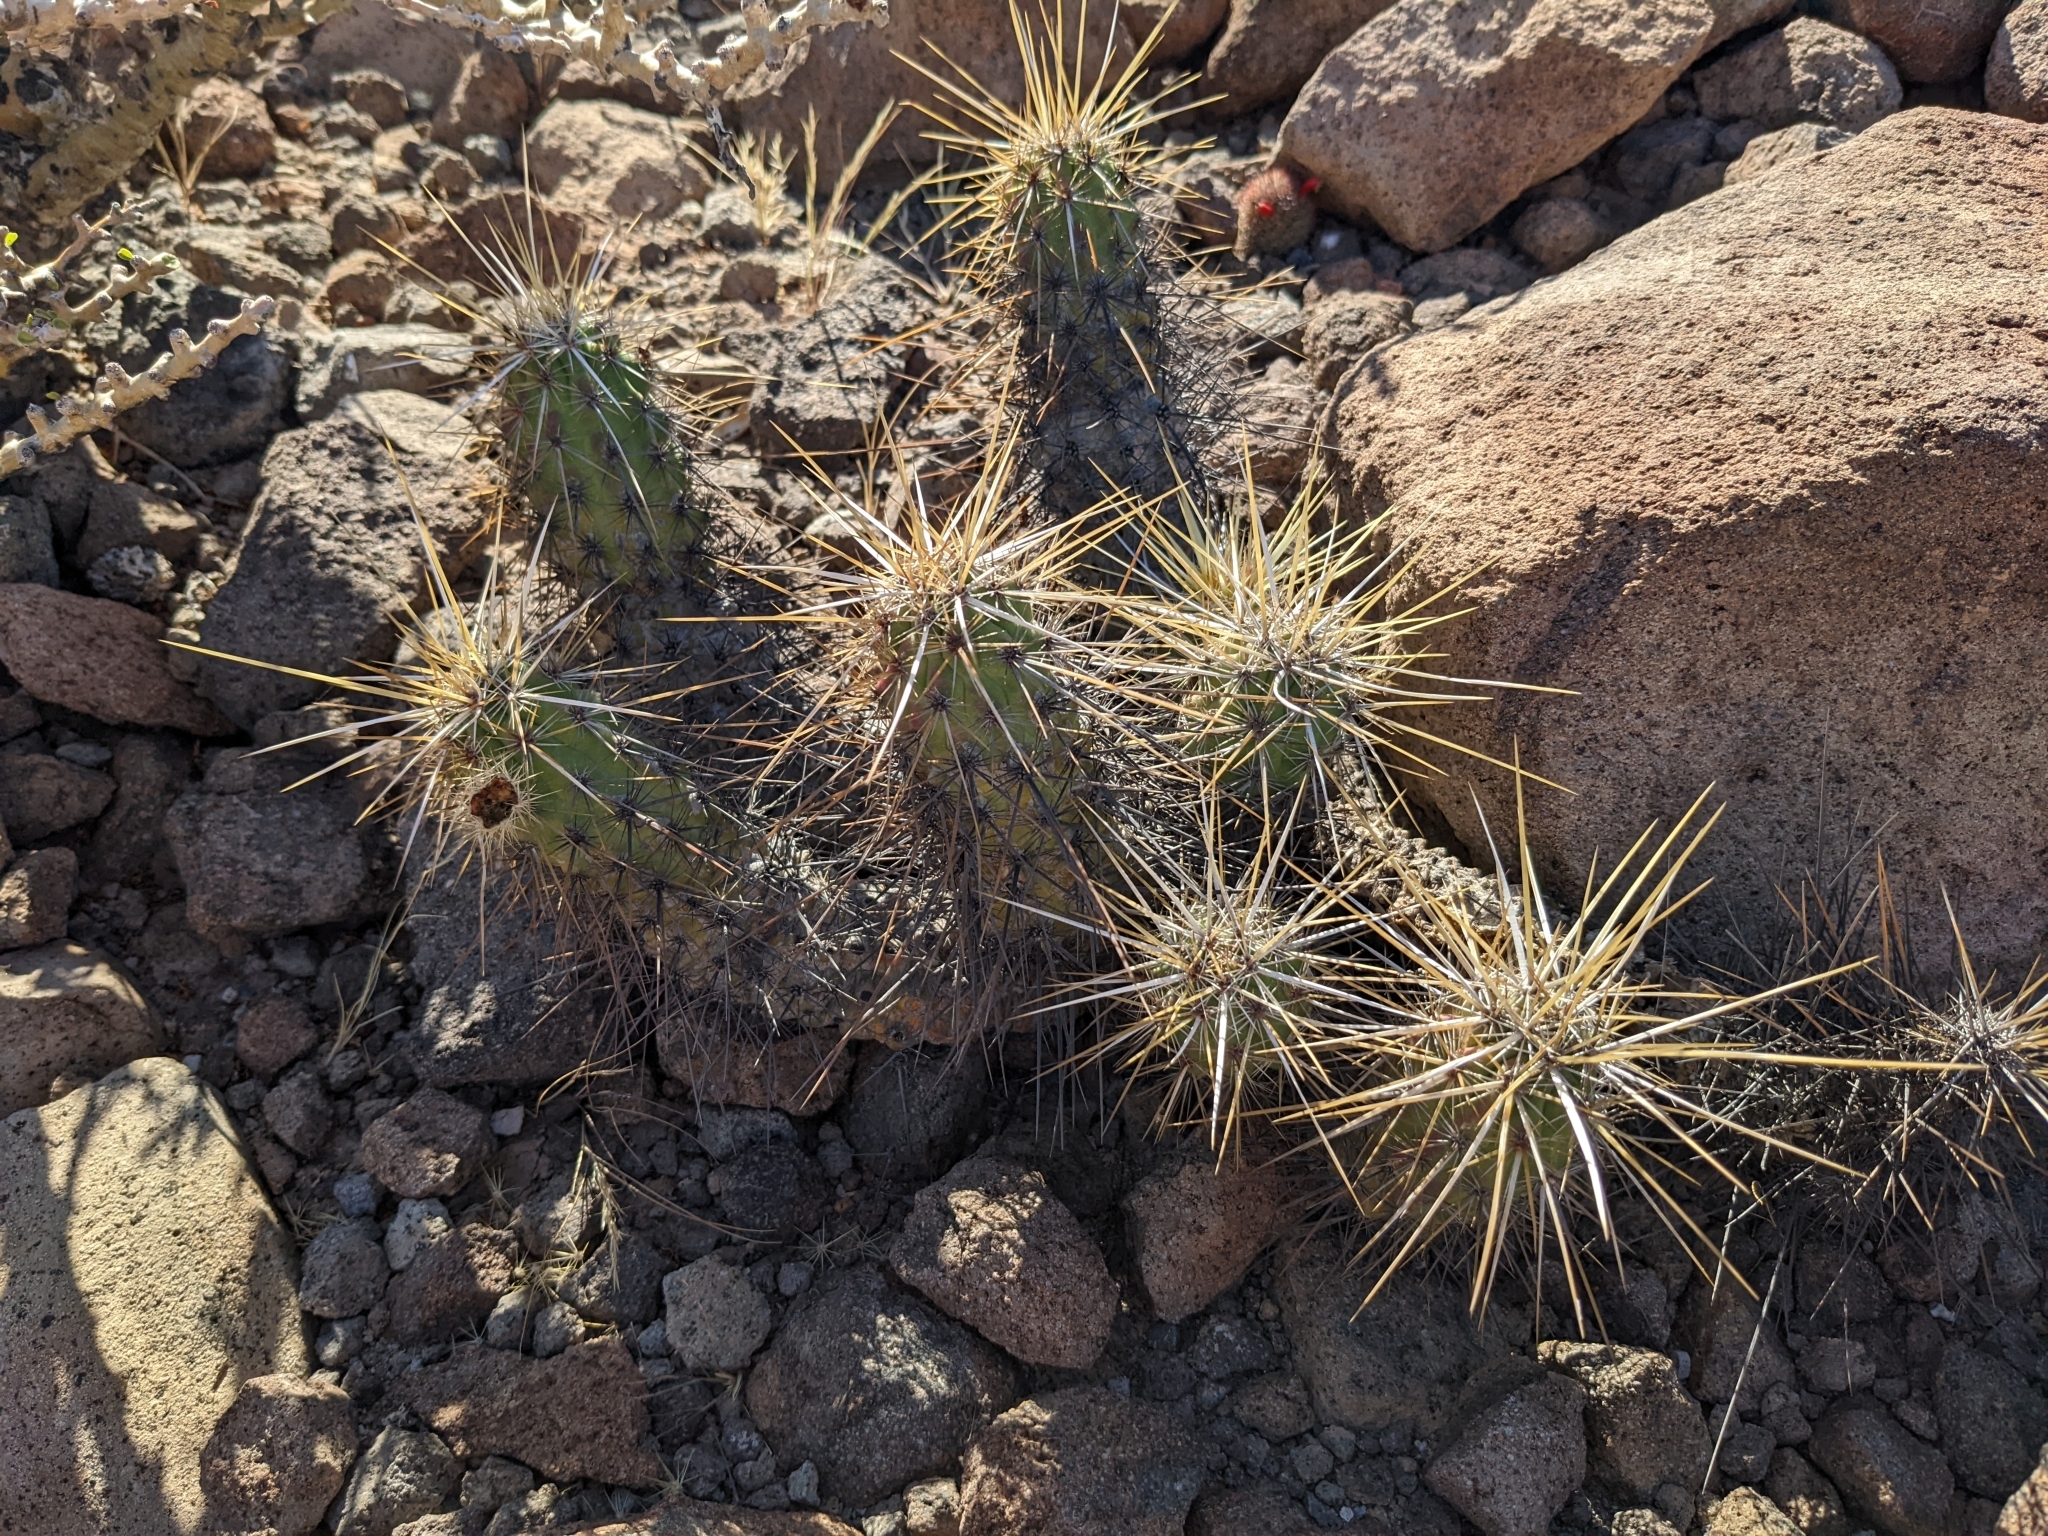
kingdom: Plantae
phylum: Tracheophyta
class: Magnoliopsida
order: Caryophyllales
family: Cactaceae
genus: Echinocereus
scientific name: Echinocereus brandegeei
